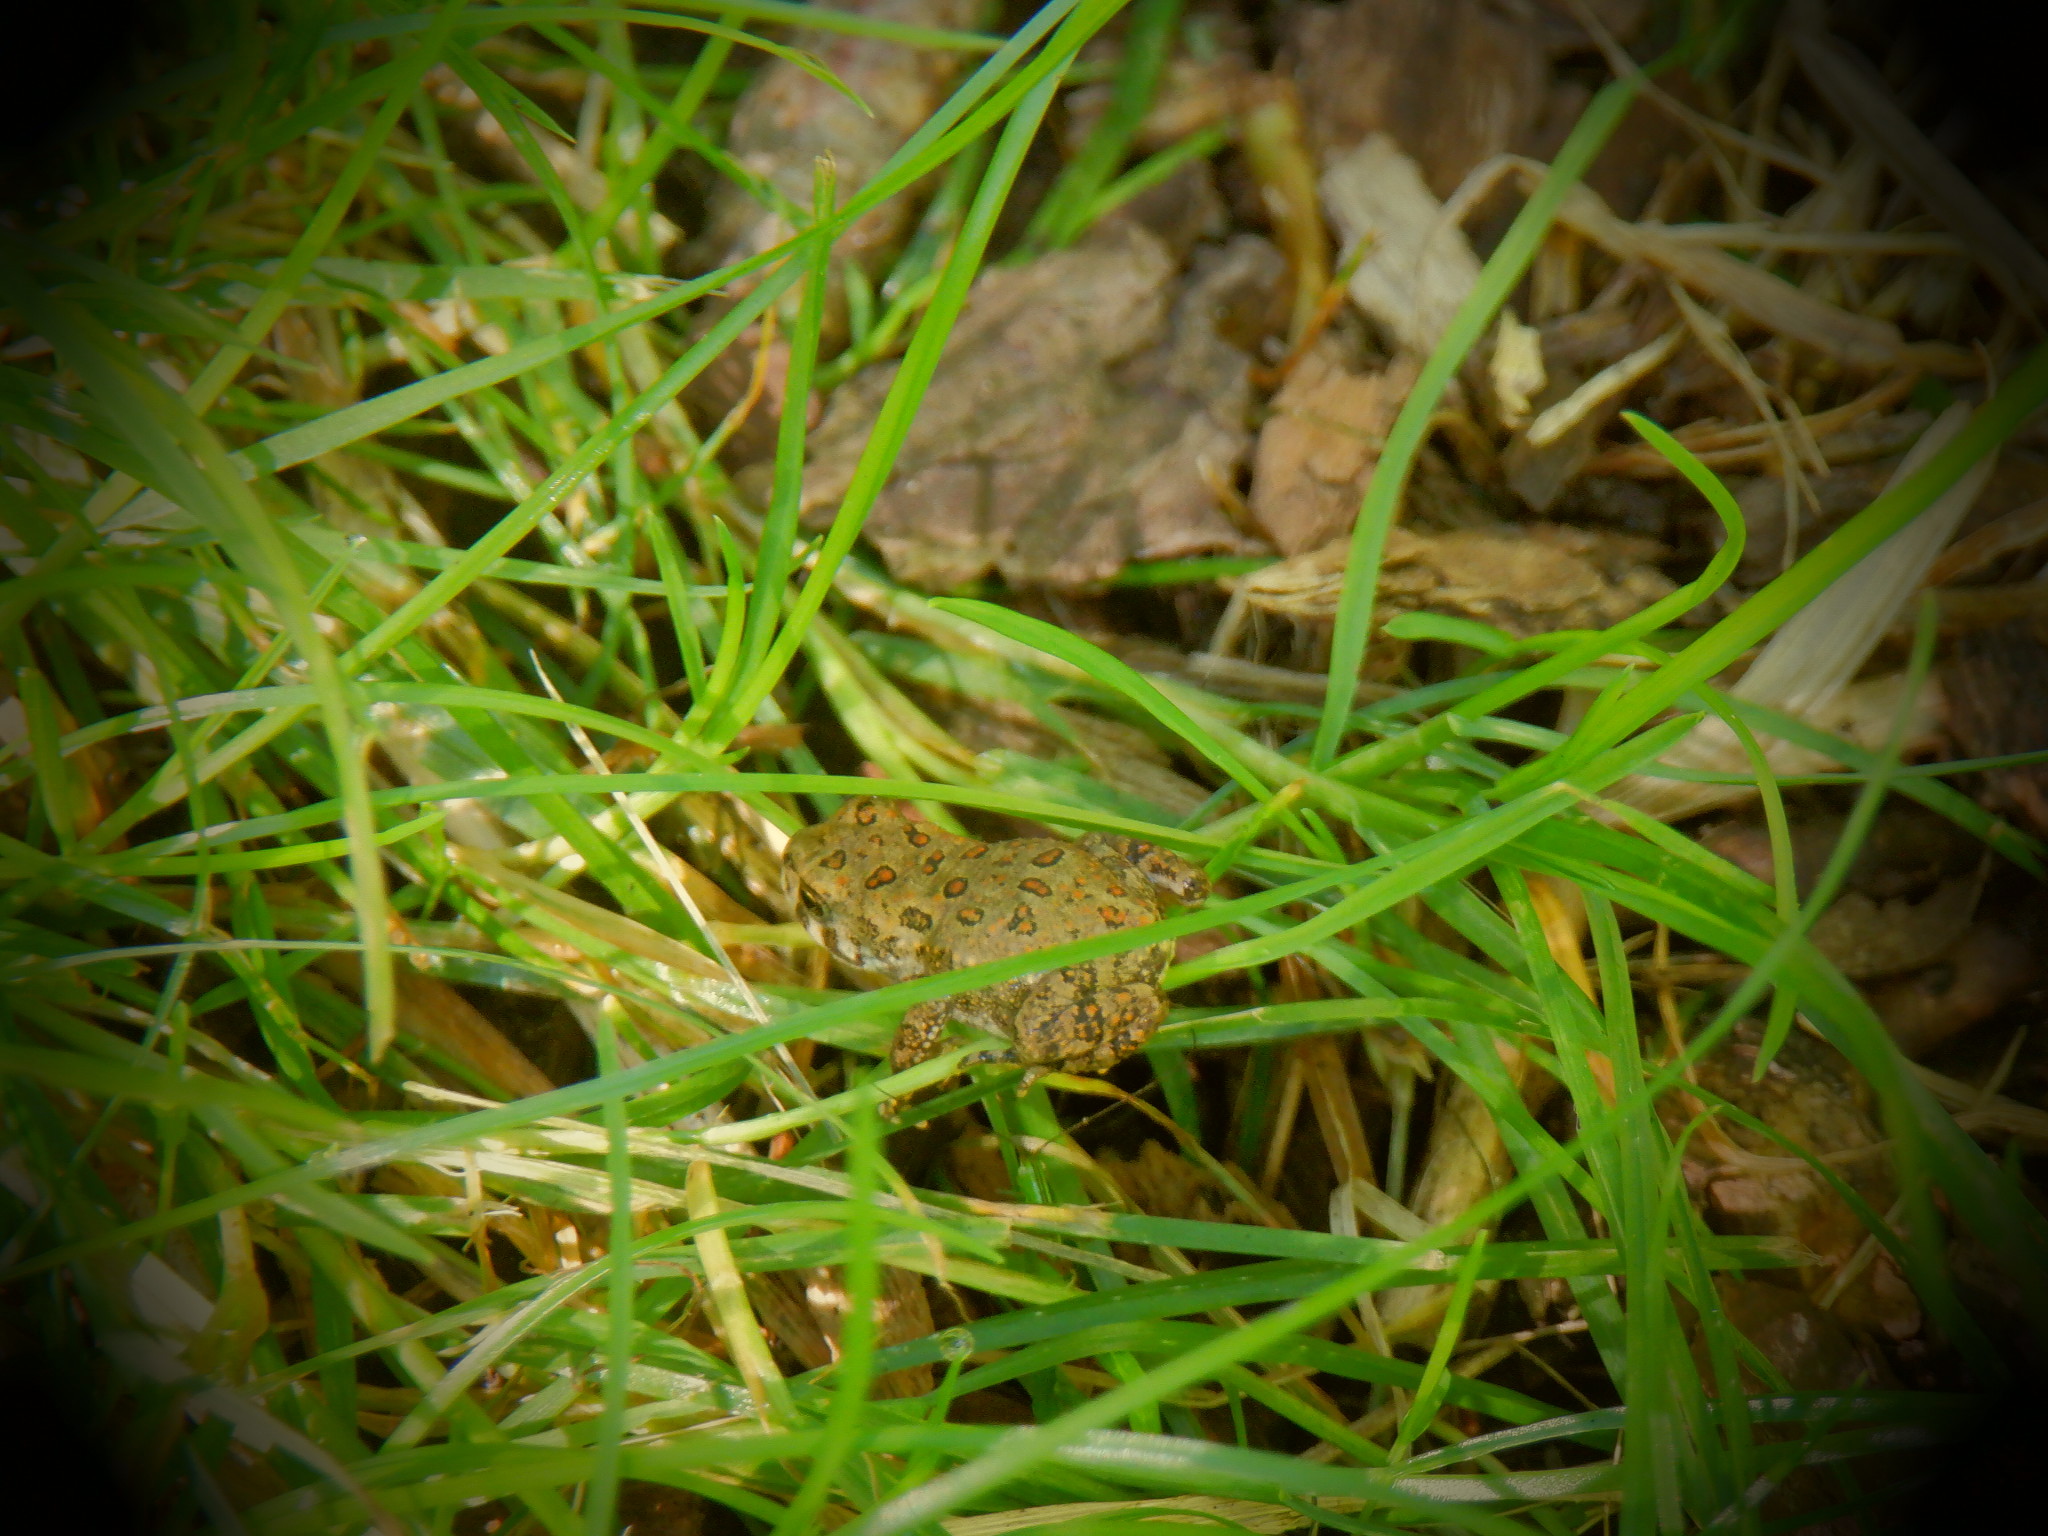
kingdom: Animalia
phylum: Chordata
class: Amphibia
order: Anura
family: Bufonidae
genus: Anaxyrus
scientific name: Anaxyrus americanus
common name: American toad
